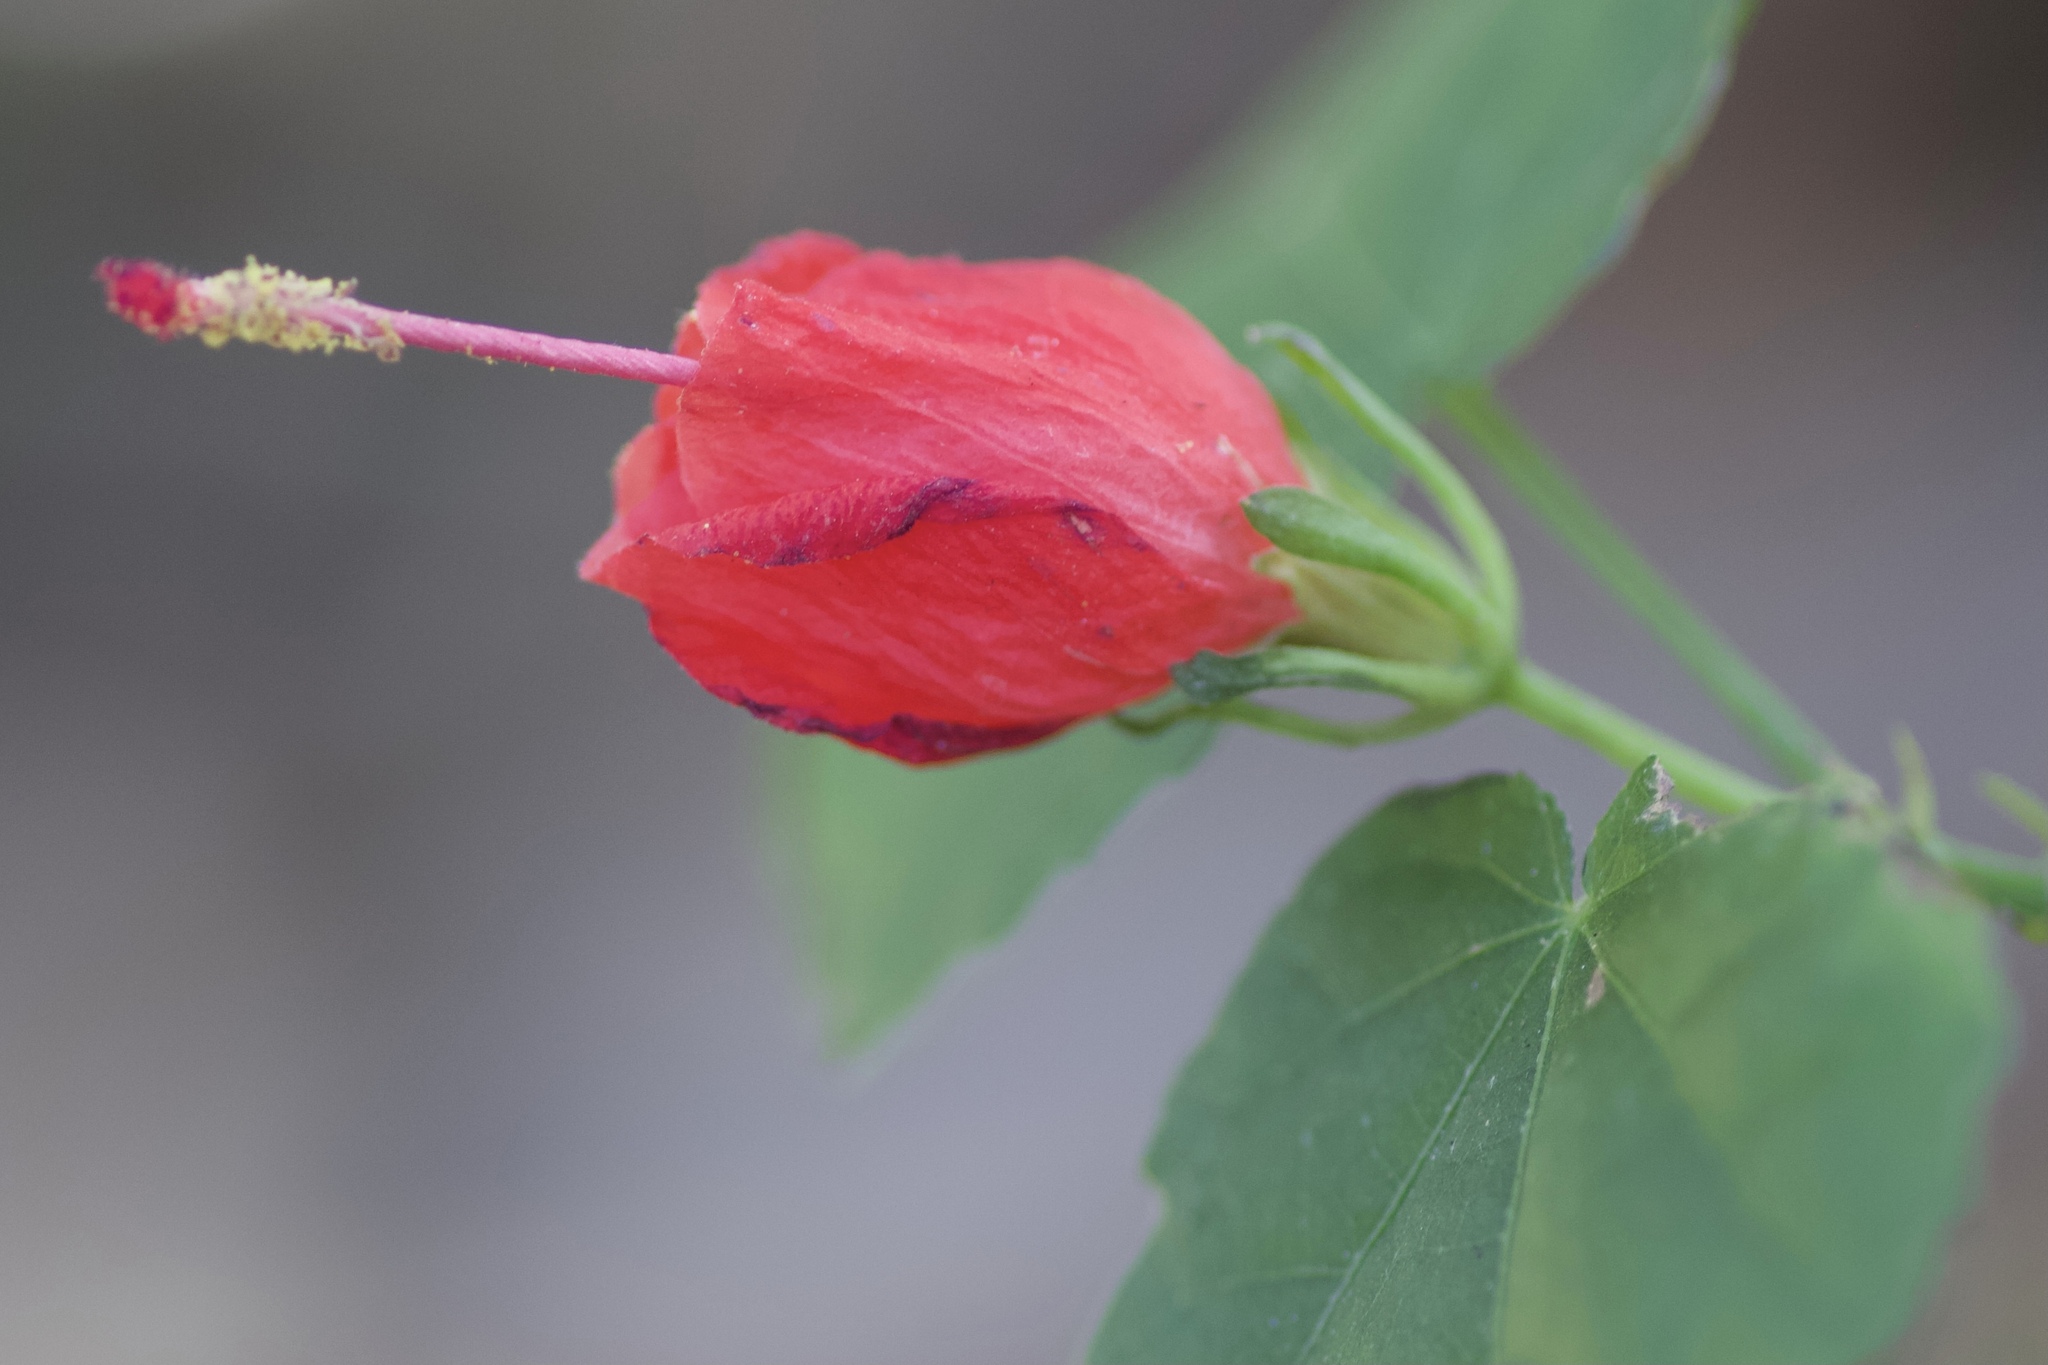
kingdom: Plantae
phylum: Tracheophyta
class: Magnoliopsida
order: Malvales
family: Malvaceae
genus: Malvaviscus
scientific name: Malvaviscus arboreus
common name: Wax mallow
